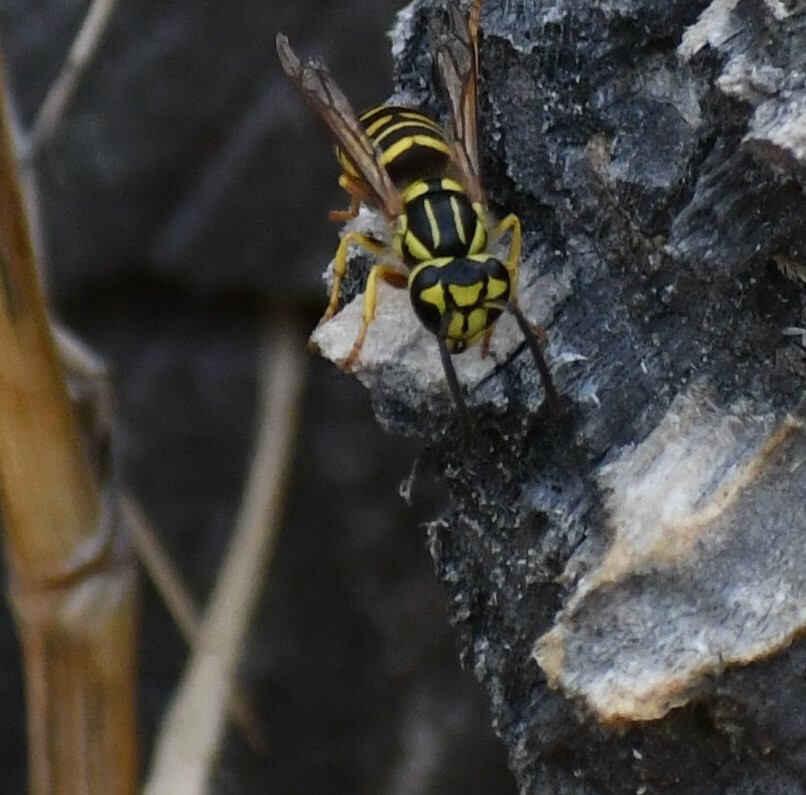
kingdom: Animalia
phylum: Arthropoda
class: Insecta
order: Hymenoptera
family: Vespidae
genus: Vespula
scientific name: Vespula squamosa
